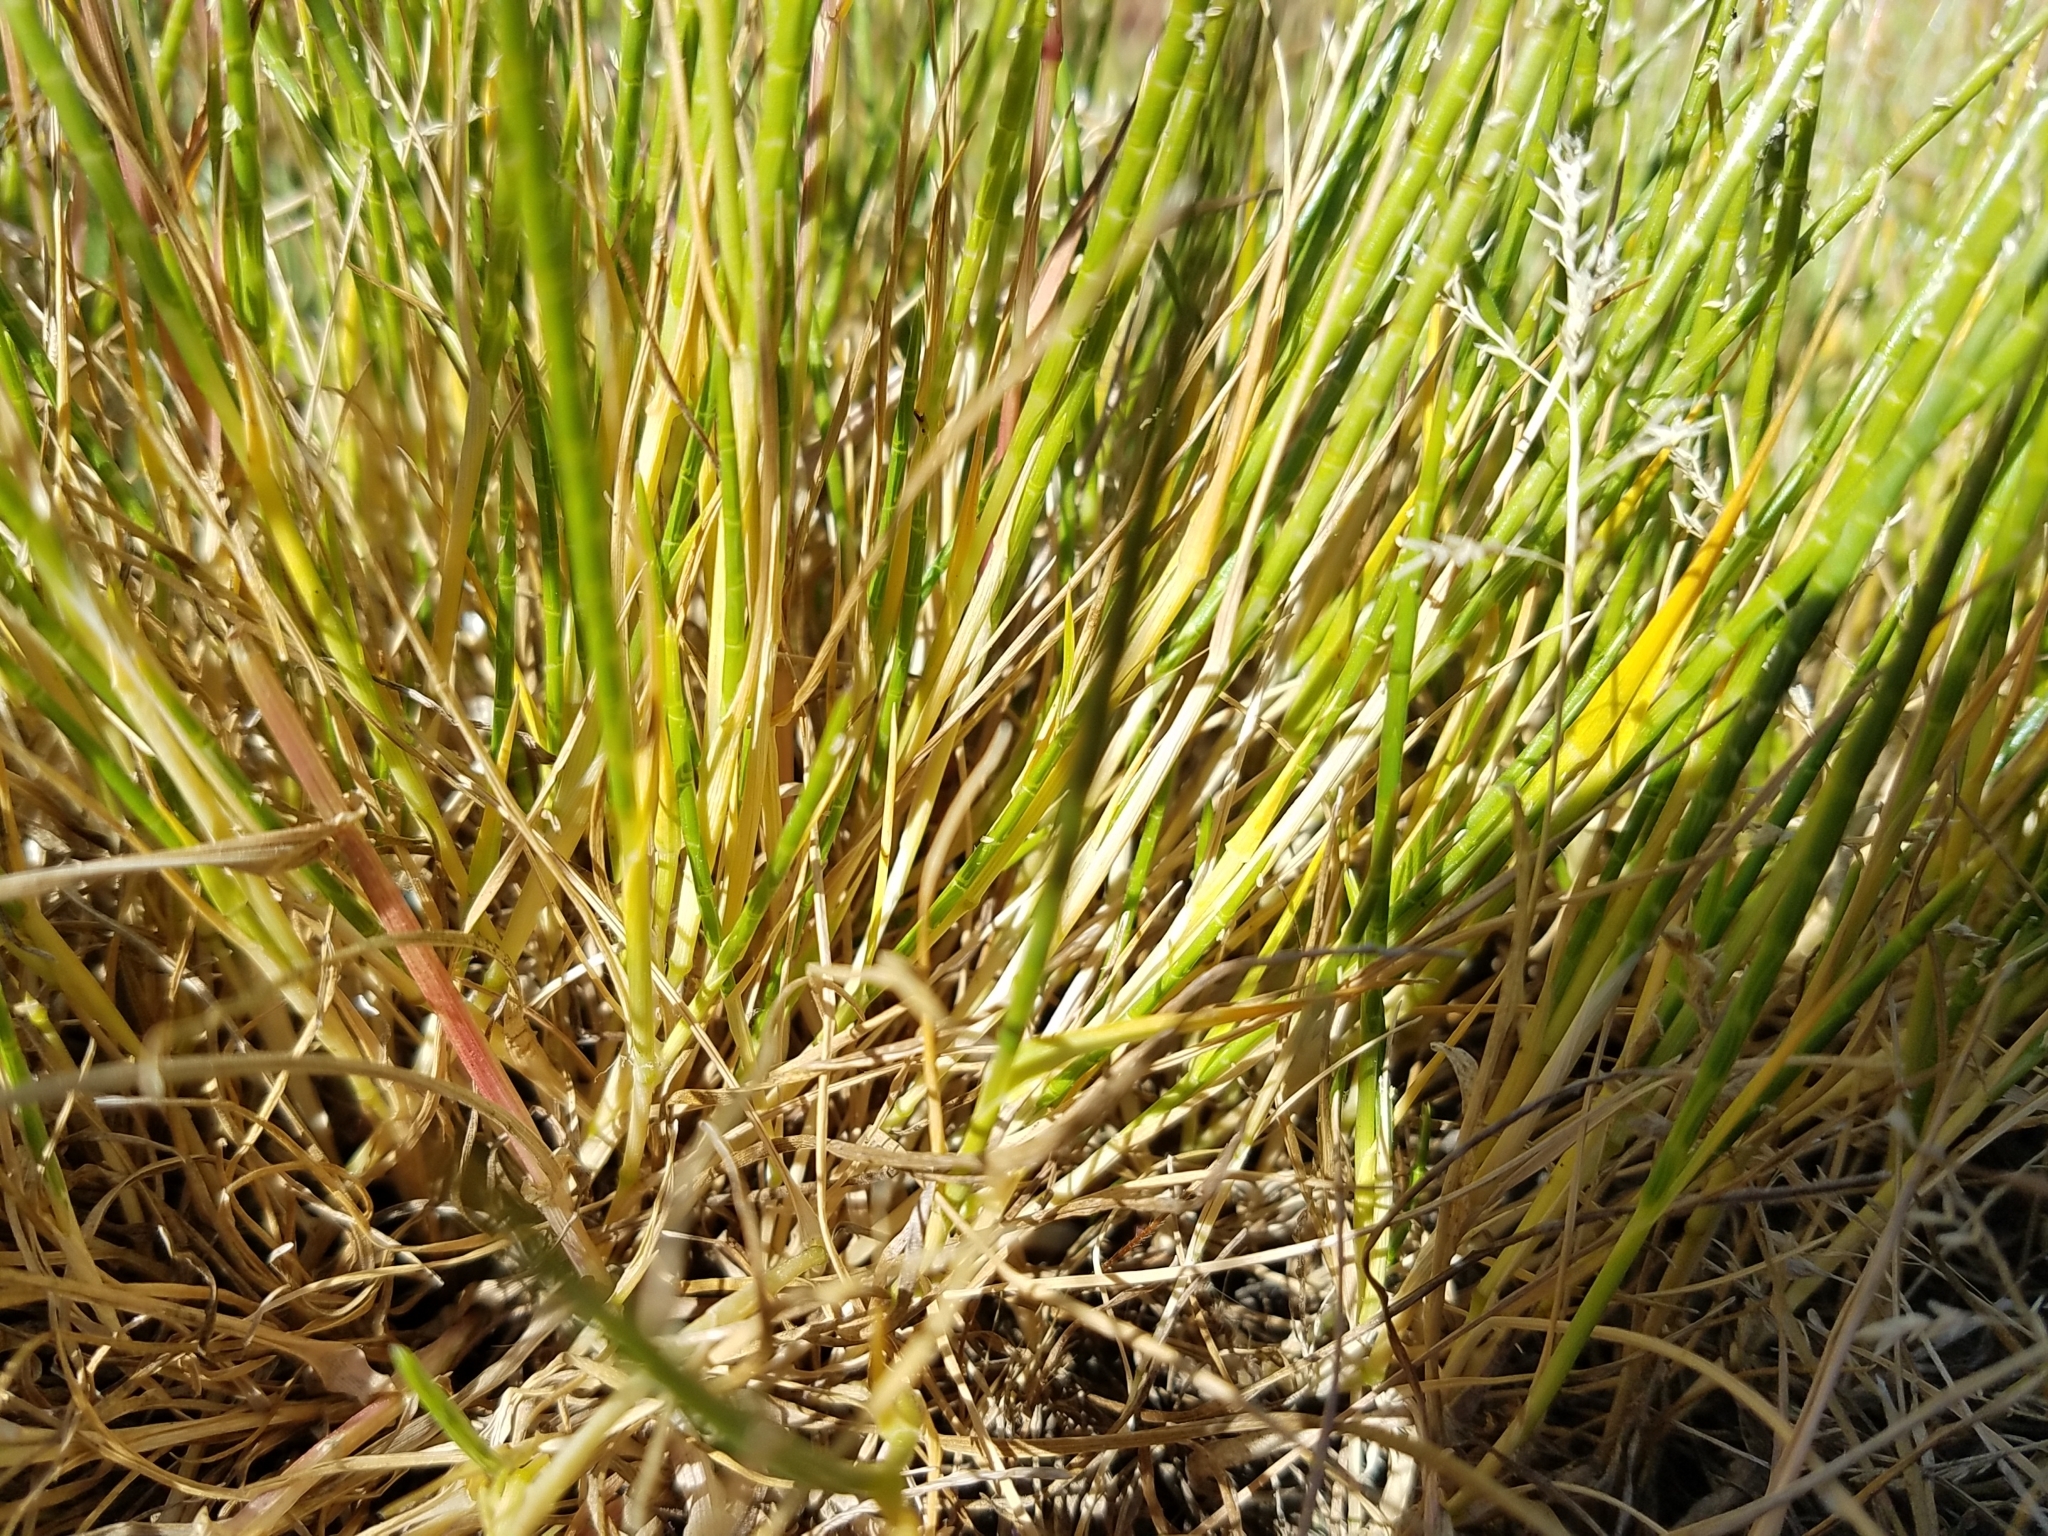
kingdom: Plantae
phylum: Tracheophyta
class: Liliopsida
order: Poales
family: Poaceae
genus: Parapholis
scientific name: Parapholis cylindrica
